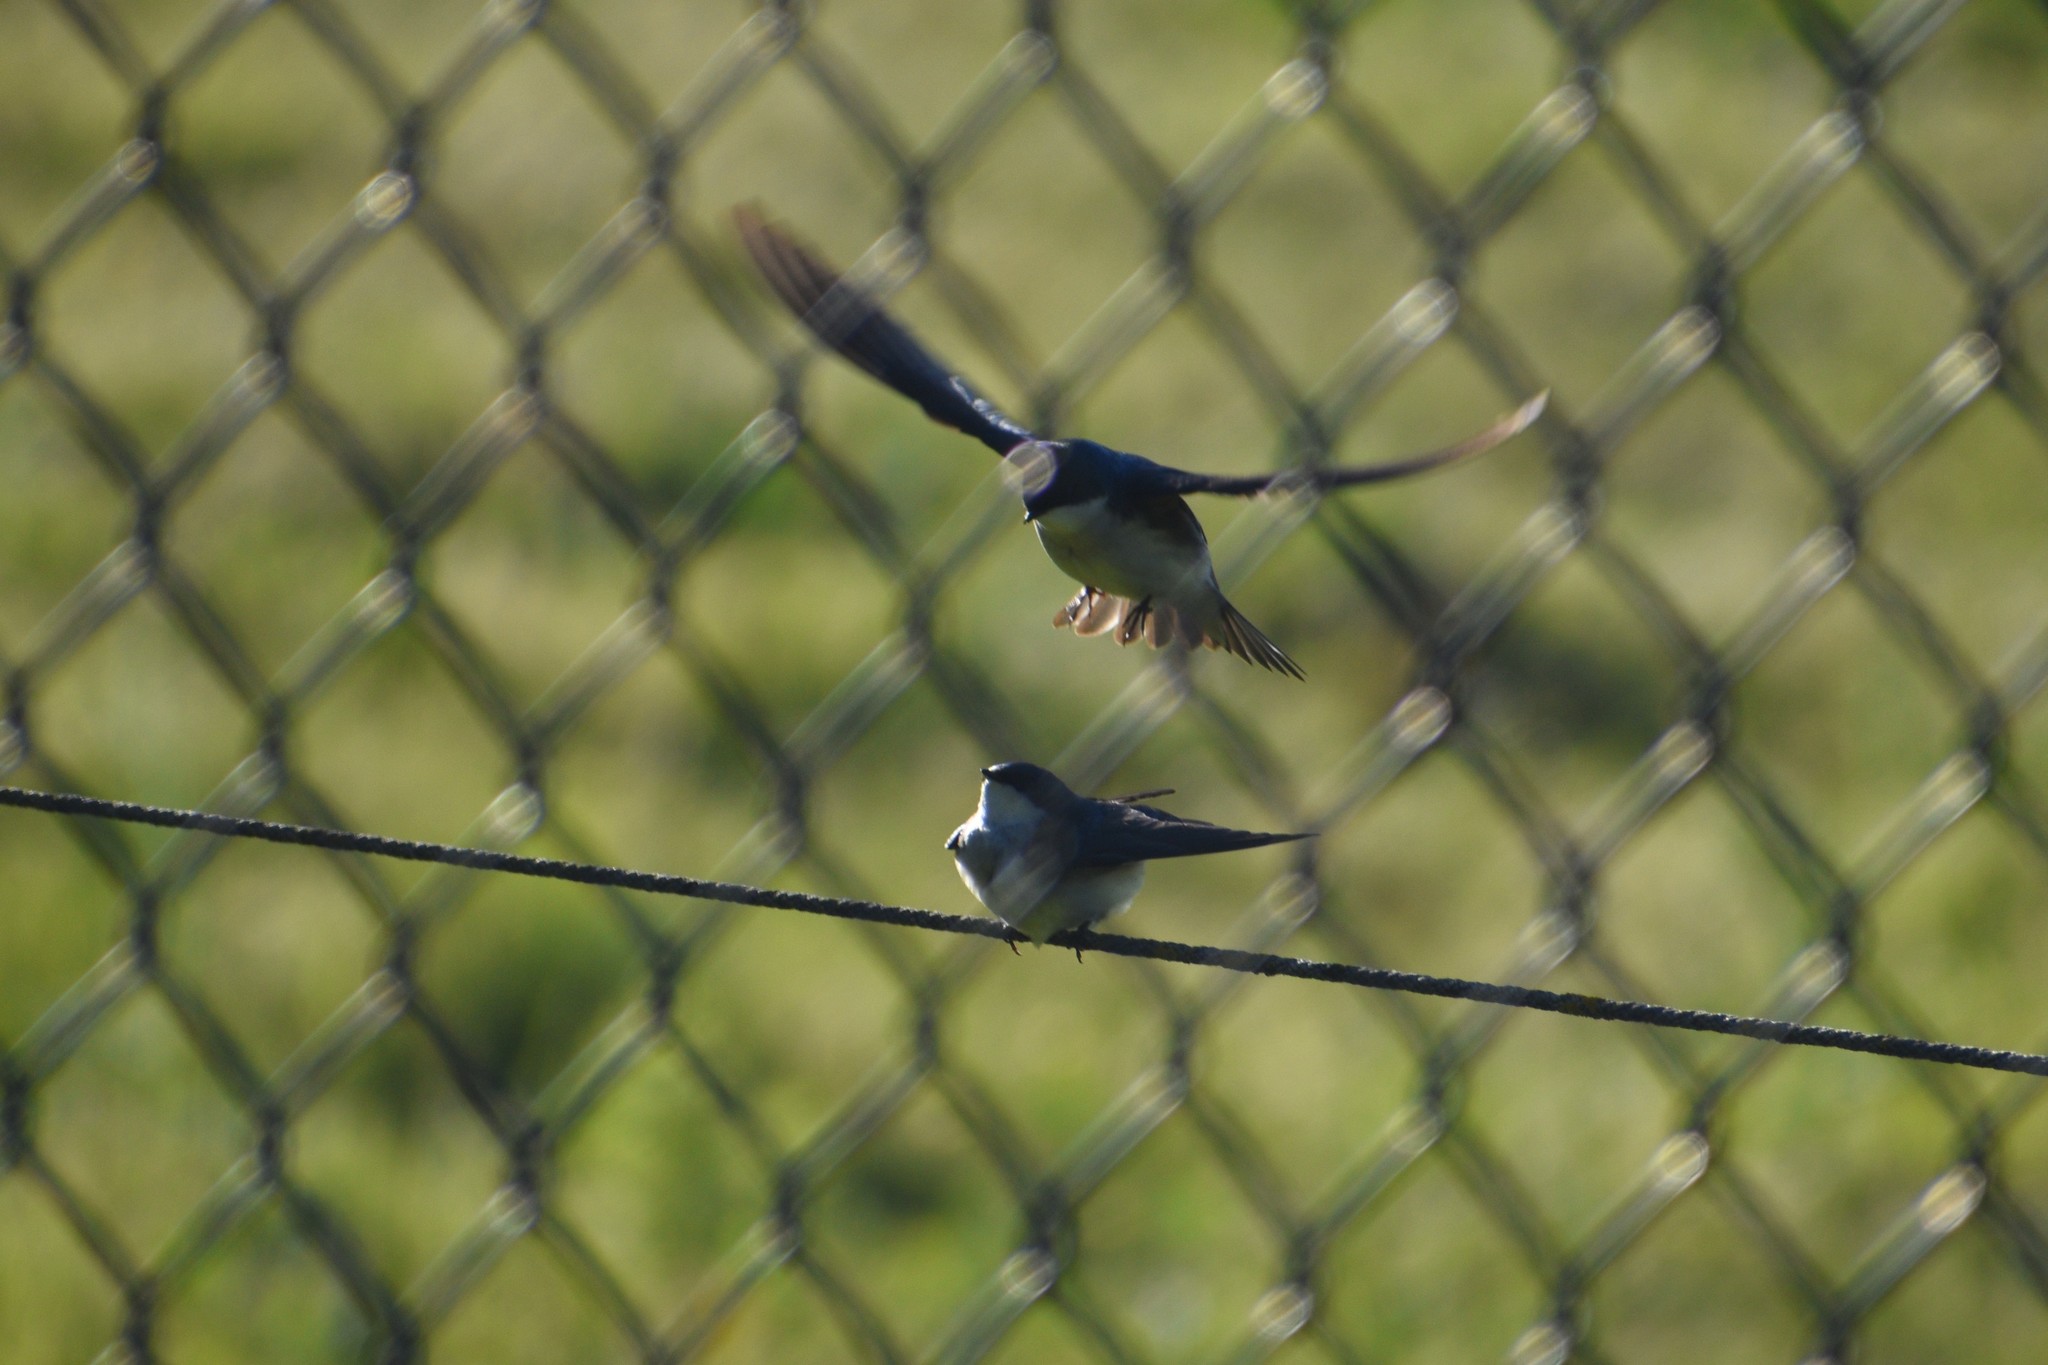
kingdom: Animalia
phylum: Chordata
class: Aves
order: Passeriformes
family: Hirundinidae
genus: Tachycineta
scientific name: Tachycineta bicolor
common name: Tree swallow
